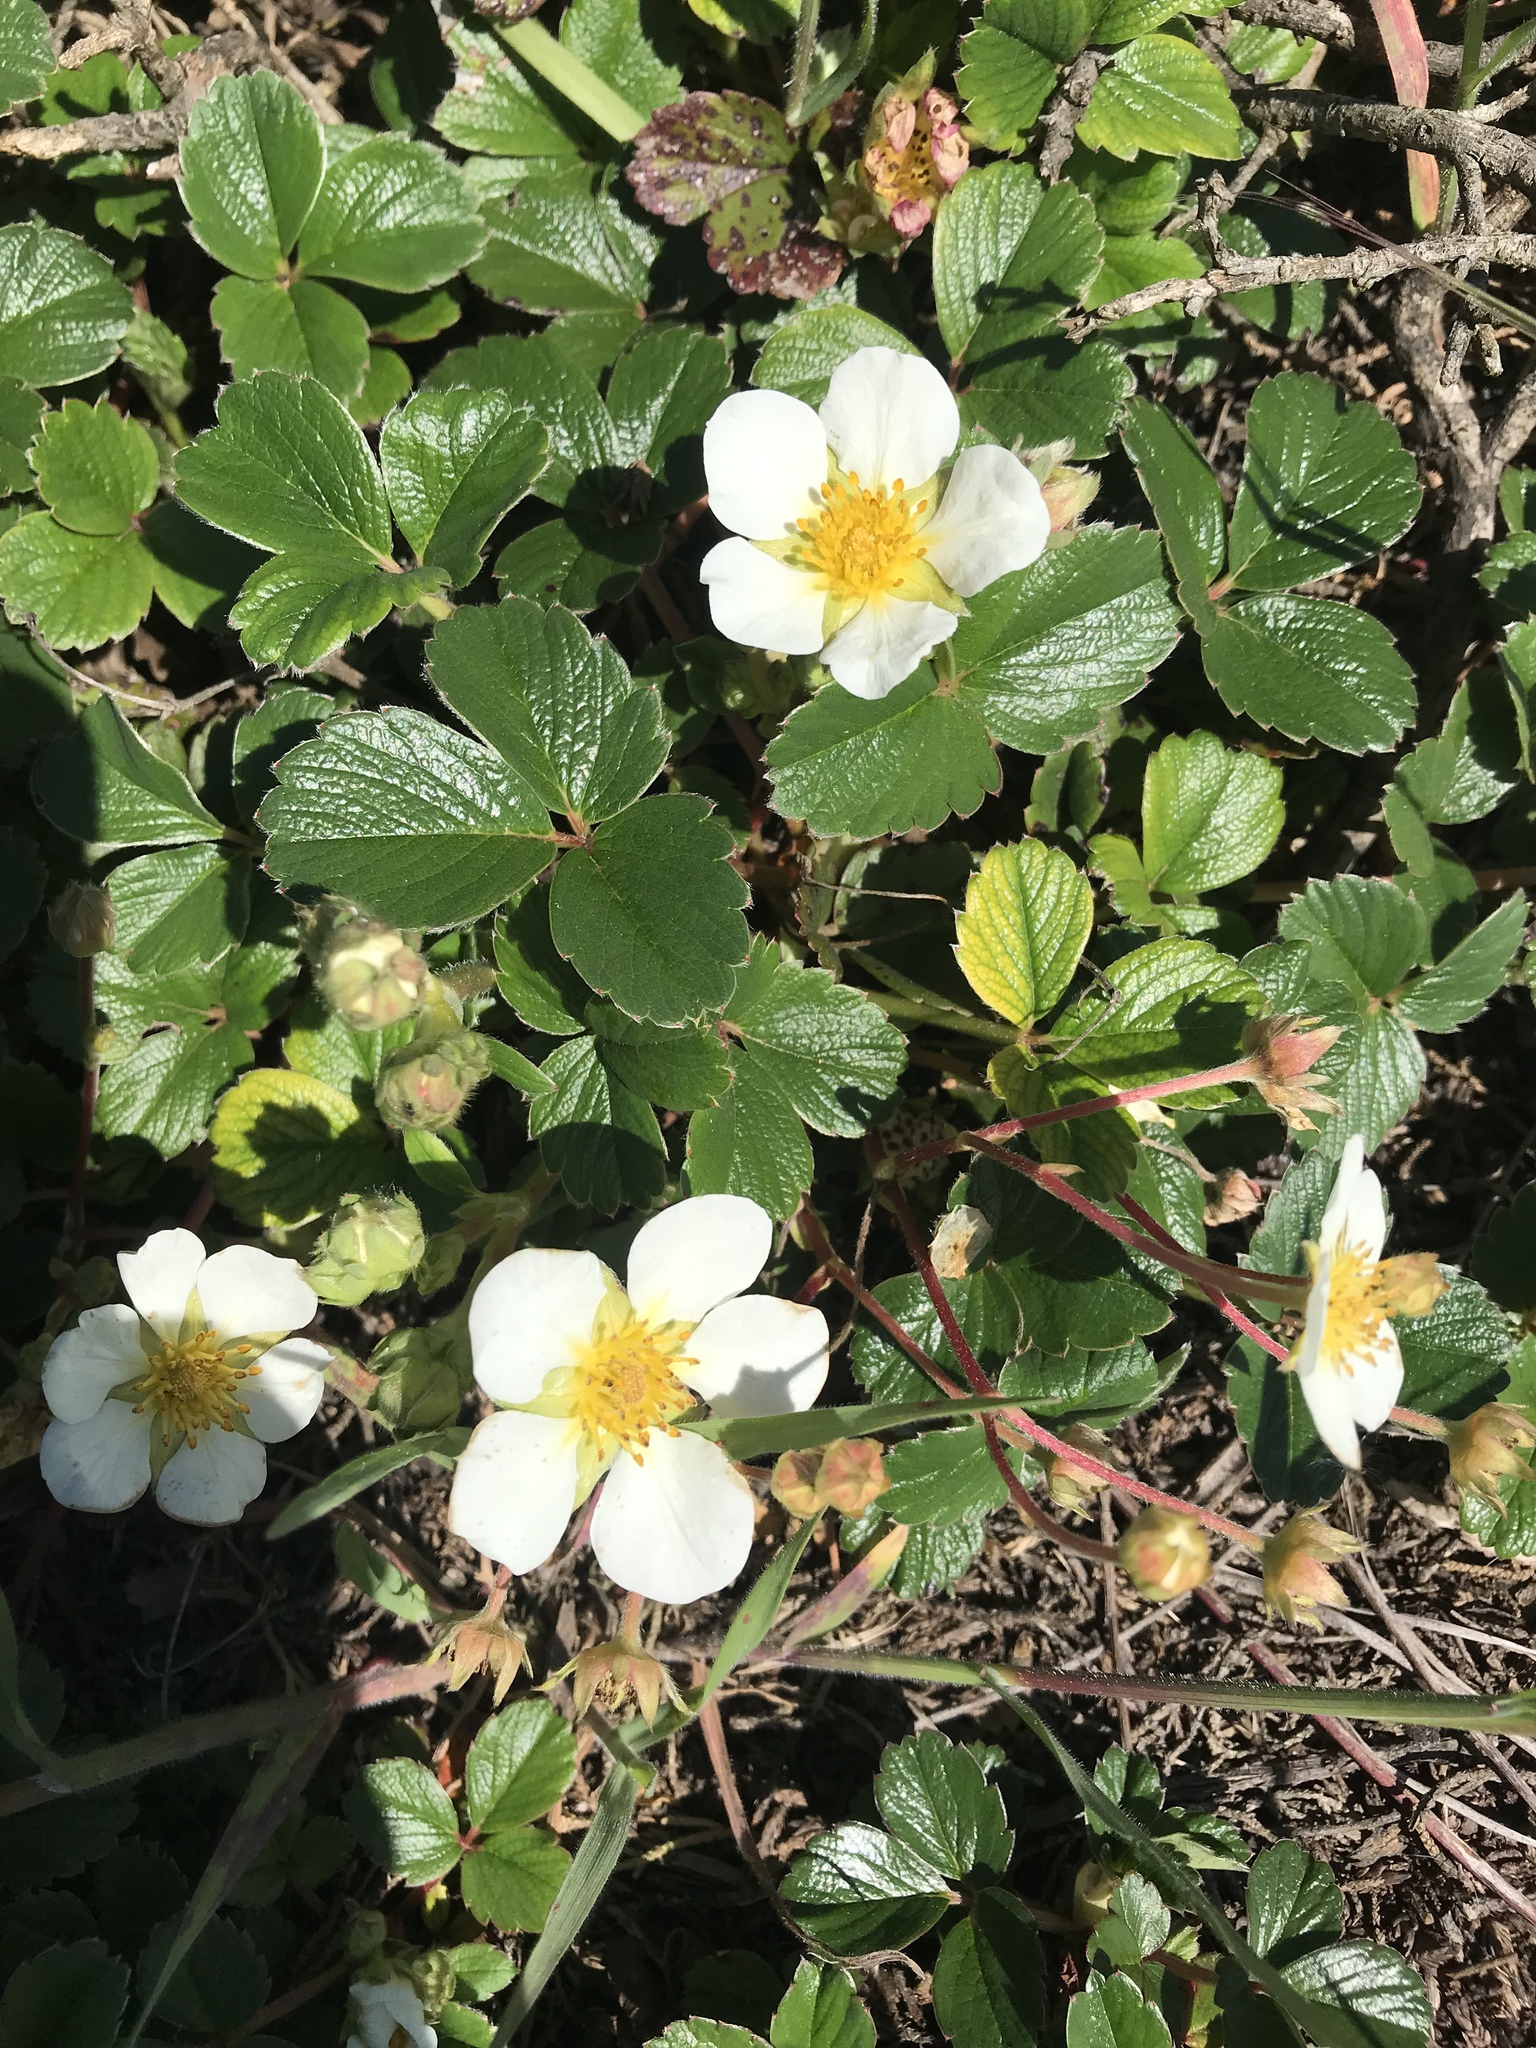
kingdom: Plantae
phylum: Tracheophyta
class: Magnoliopsida
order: Rosales
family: Rosaceae
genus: Fragaria
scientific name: Fragaria chiloensis
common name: Beach strawberry
